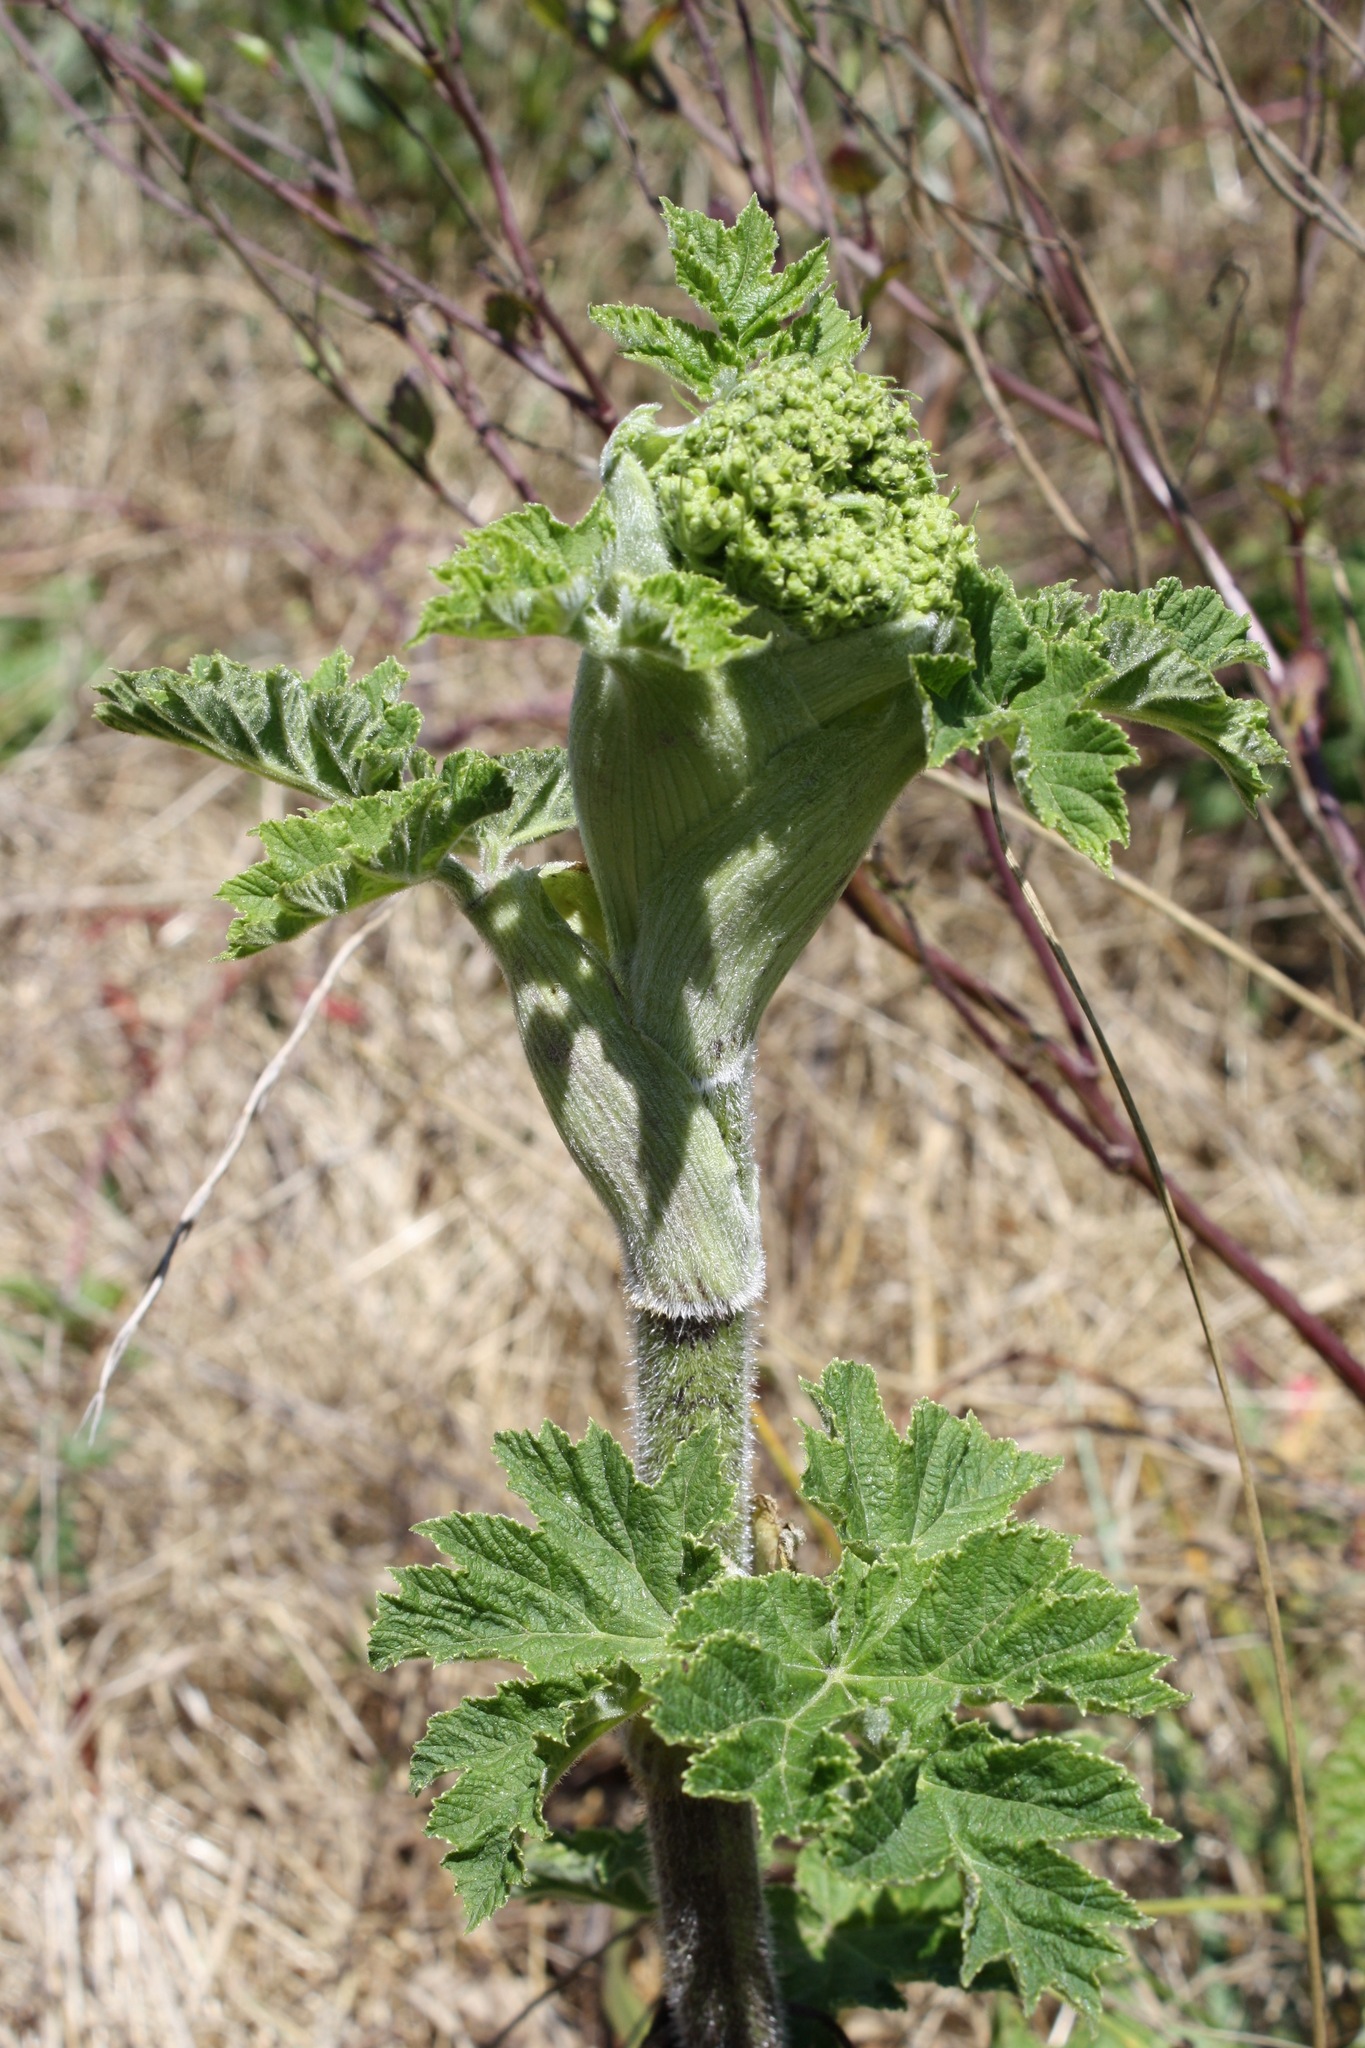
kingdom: Plantae
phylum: Tracheophyta
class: Magnoliopsida
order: Apiales
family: Apiaceae
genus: Heracleum
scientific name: Heracleum maximum
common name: American cow parsnip
